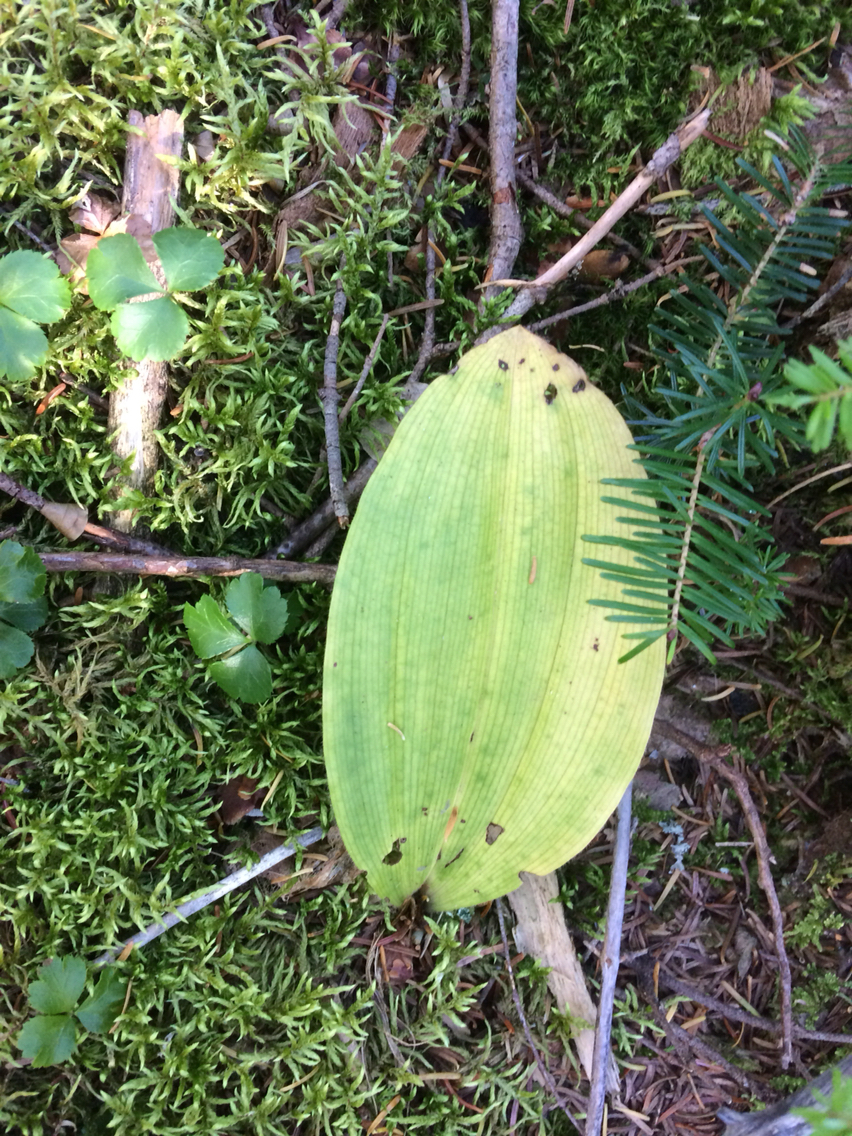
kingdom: Plantae
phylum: Tracheophyta
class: Liliopsida
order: Asparagales
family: Orchidaceae
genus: Cypripedium
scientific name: Cypripedium acaule
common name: Pink lady's-slipper
